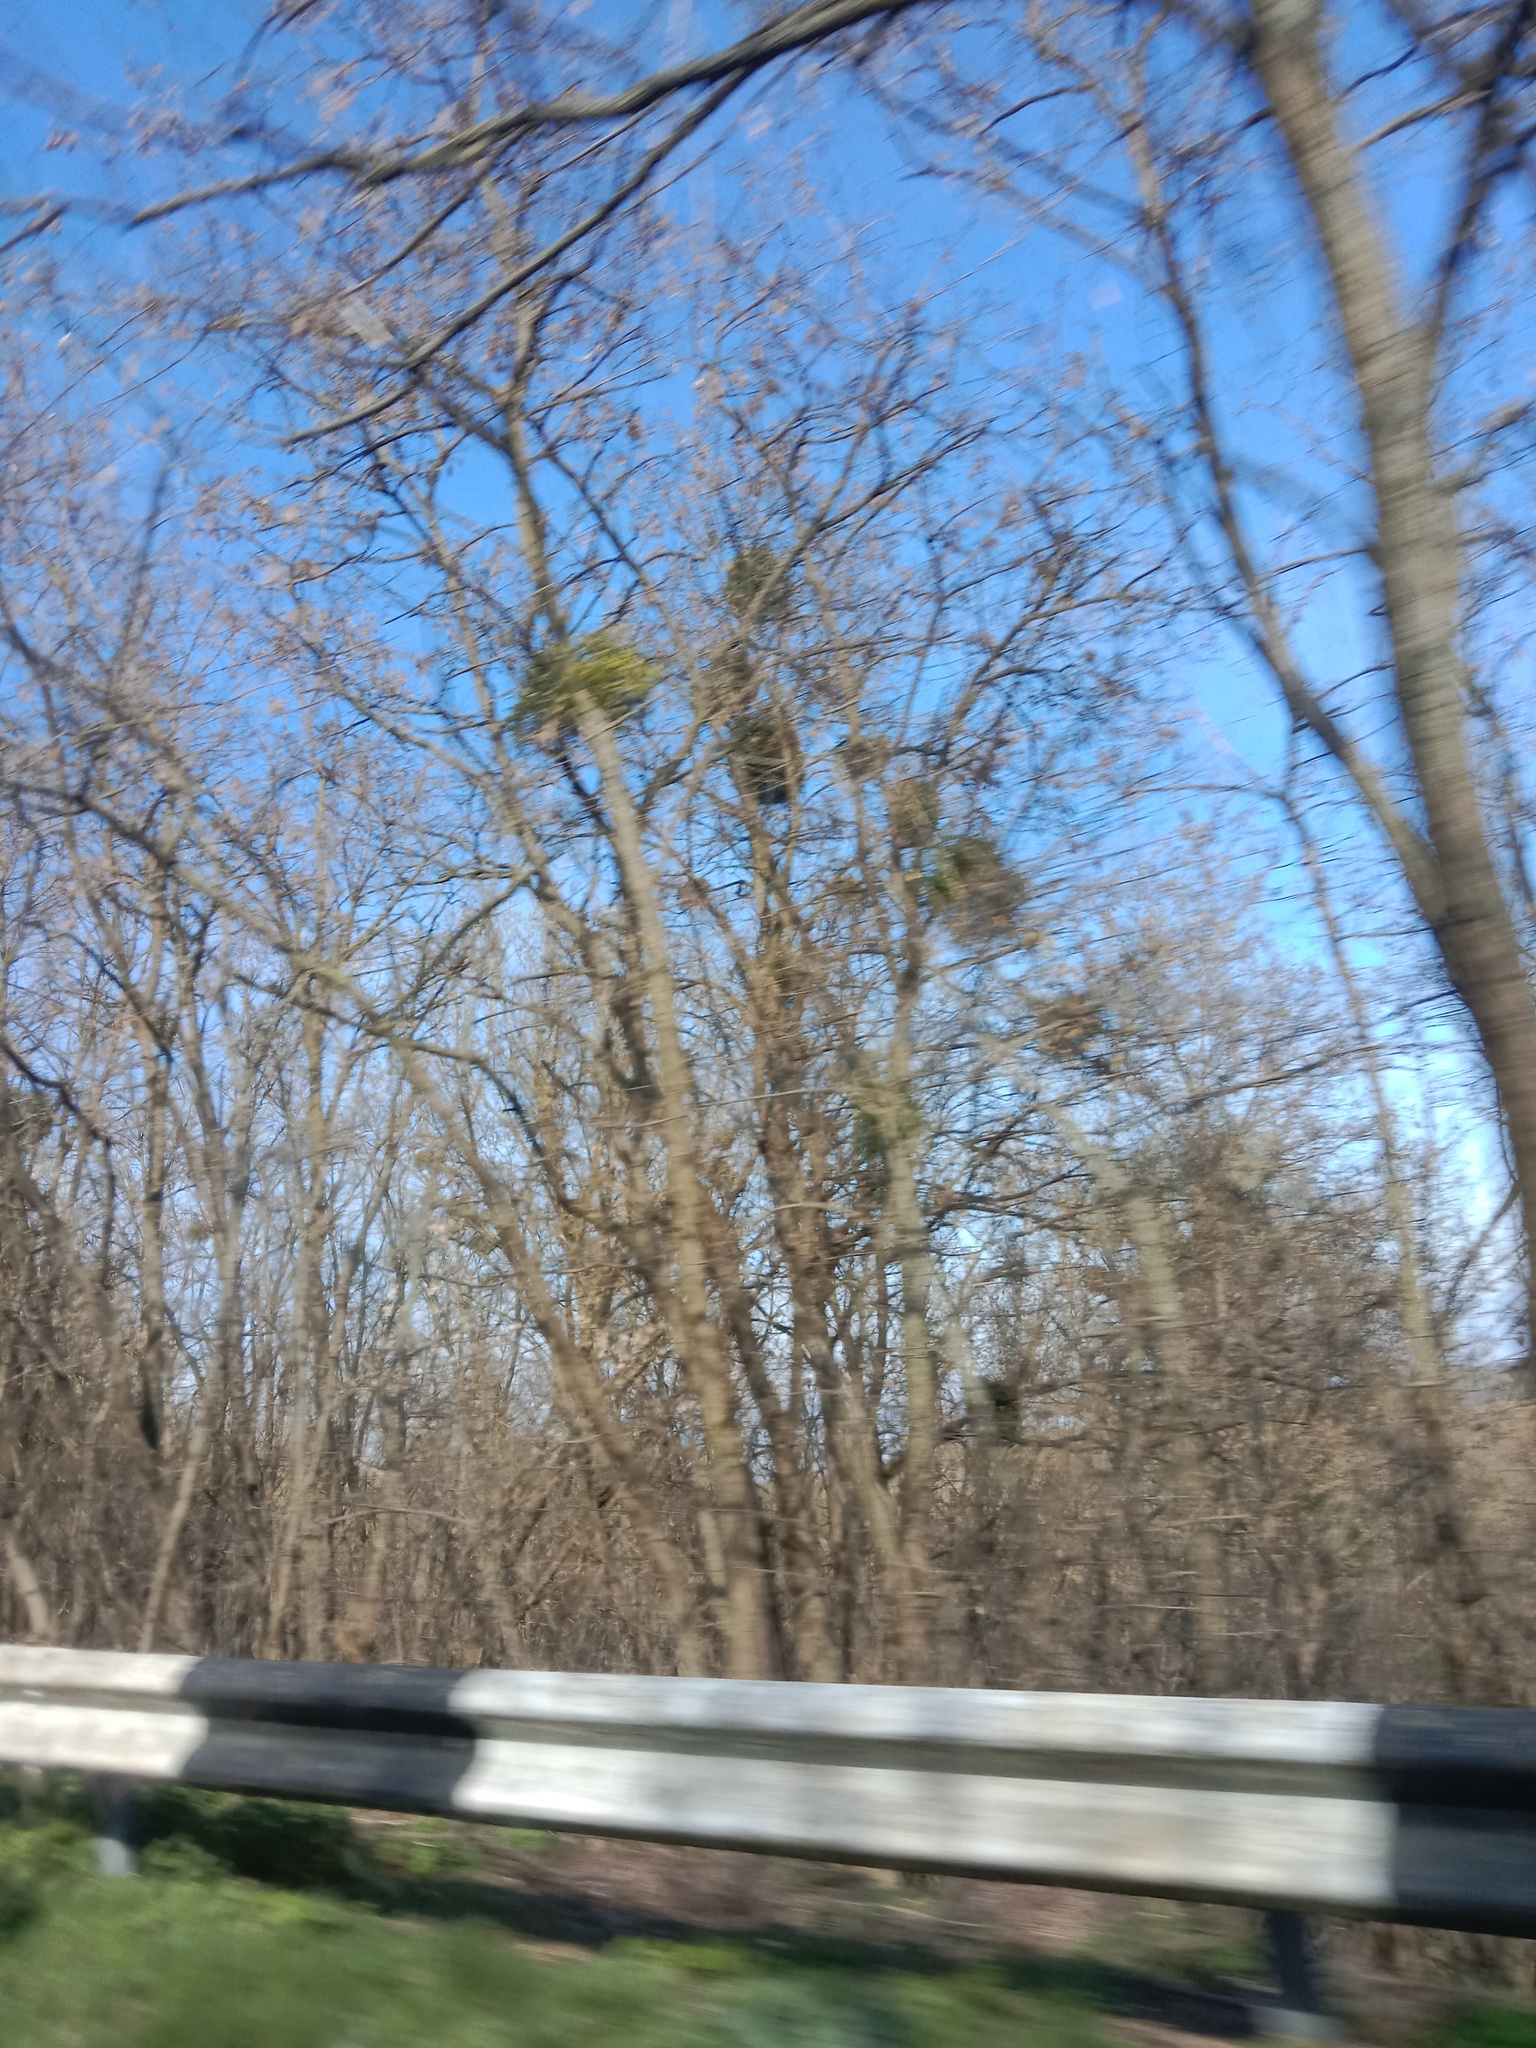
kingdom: Plantae
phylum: Tracheophyta
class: Magnoliopsida
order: Santalales
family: Viscaceae
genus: Viscum
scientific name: Viscum album
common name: Mistletoe
